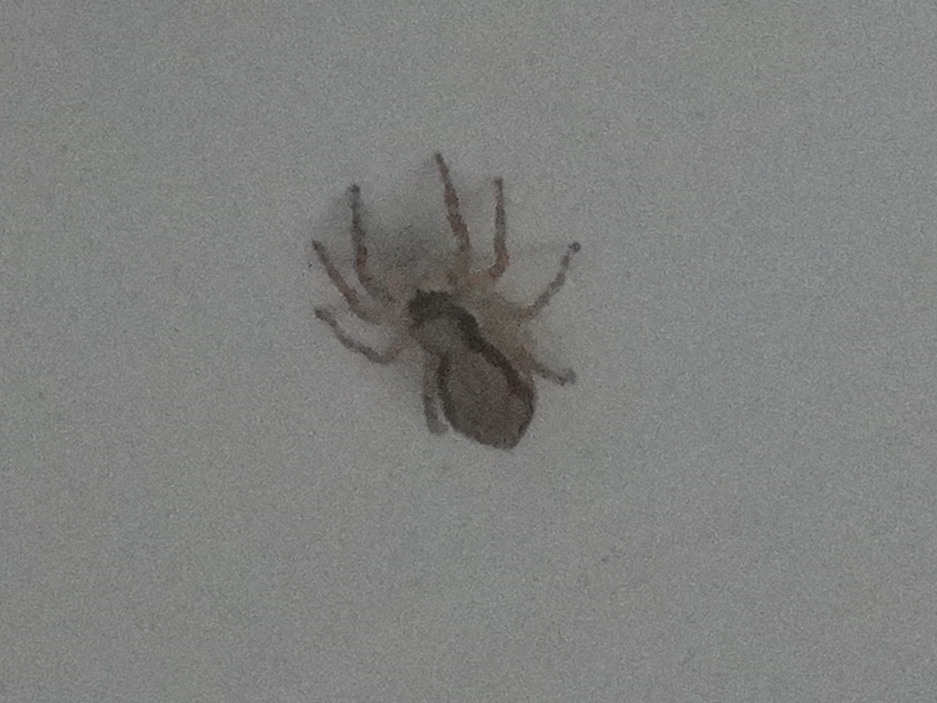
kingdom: Animalia
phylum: Arthropoda
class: Arachnida
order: Araneae
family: Salticidae
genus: Menemerus
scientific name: Menemerus bivittatus
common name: Gray wall jumper
